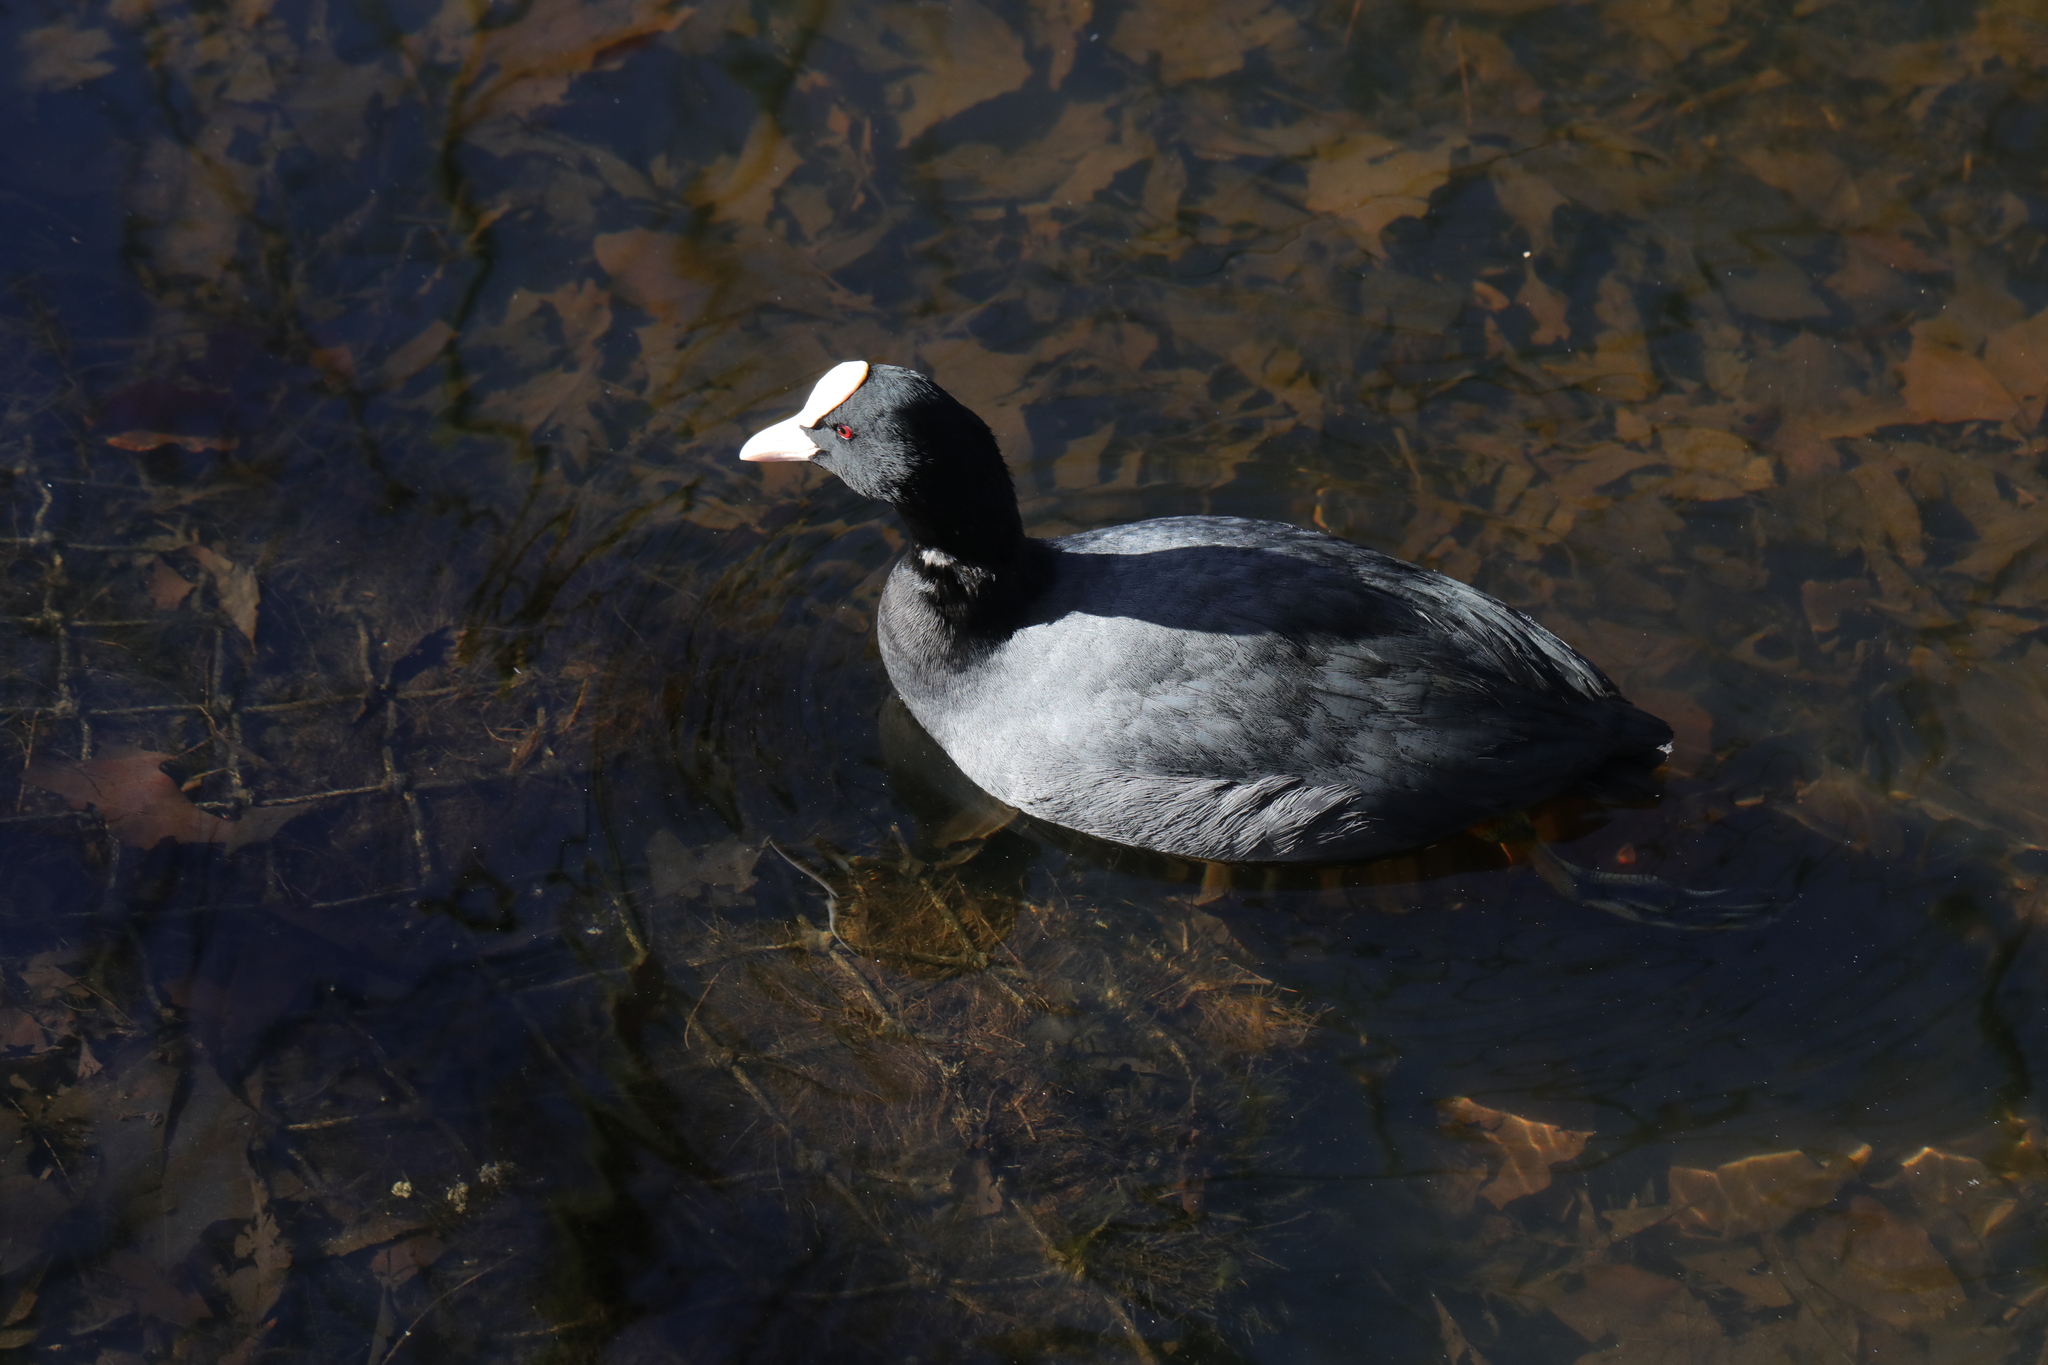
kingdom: Animalia
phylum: Chordata
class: Aves
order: Gruiformes
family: Rallidae
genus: Fulica
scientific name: Fulica atra
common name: Eurasian coot
